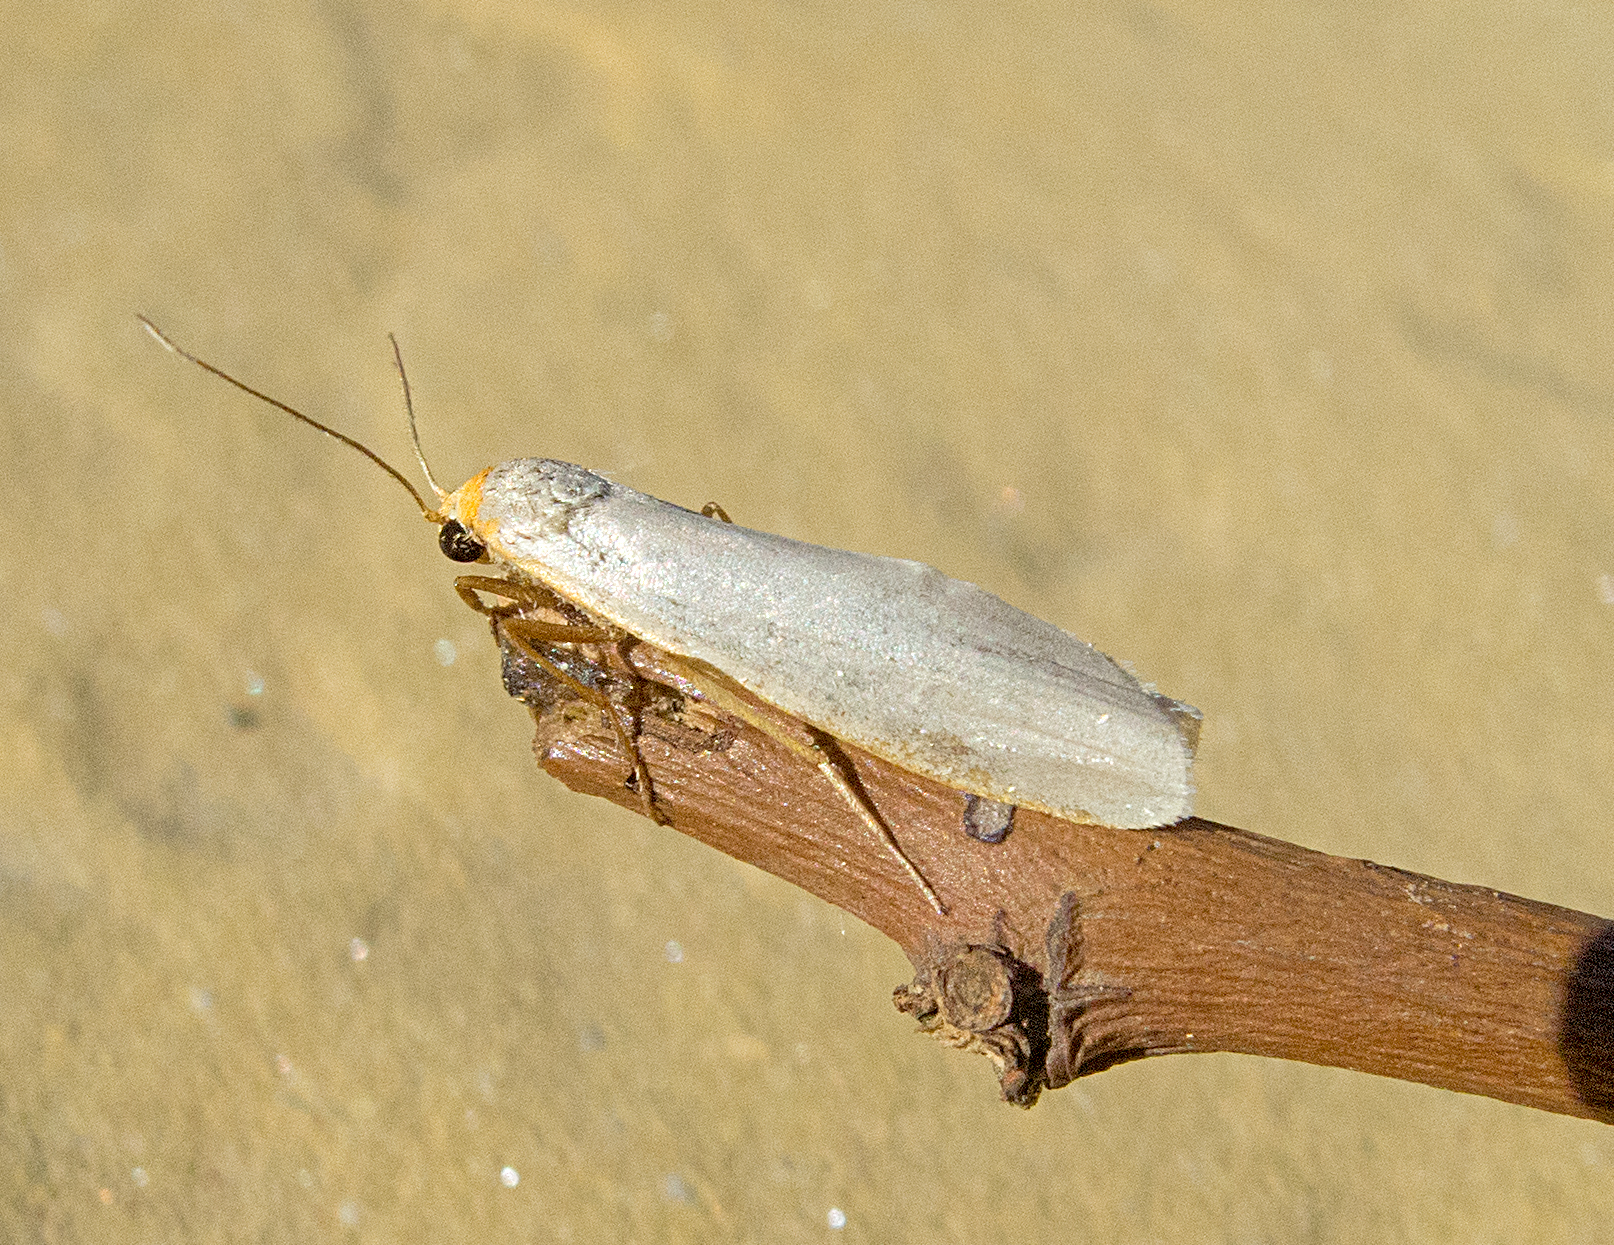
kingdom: Animalia
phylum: Arthropoda
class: Insecta
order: Lepidoptera
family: Erebidae
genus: Eilema
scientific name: Eilema caniola
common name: Hoary footman
